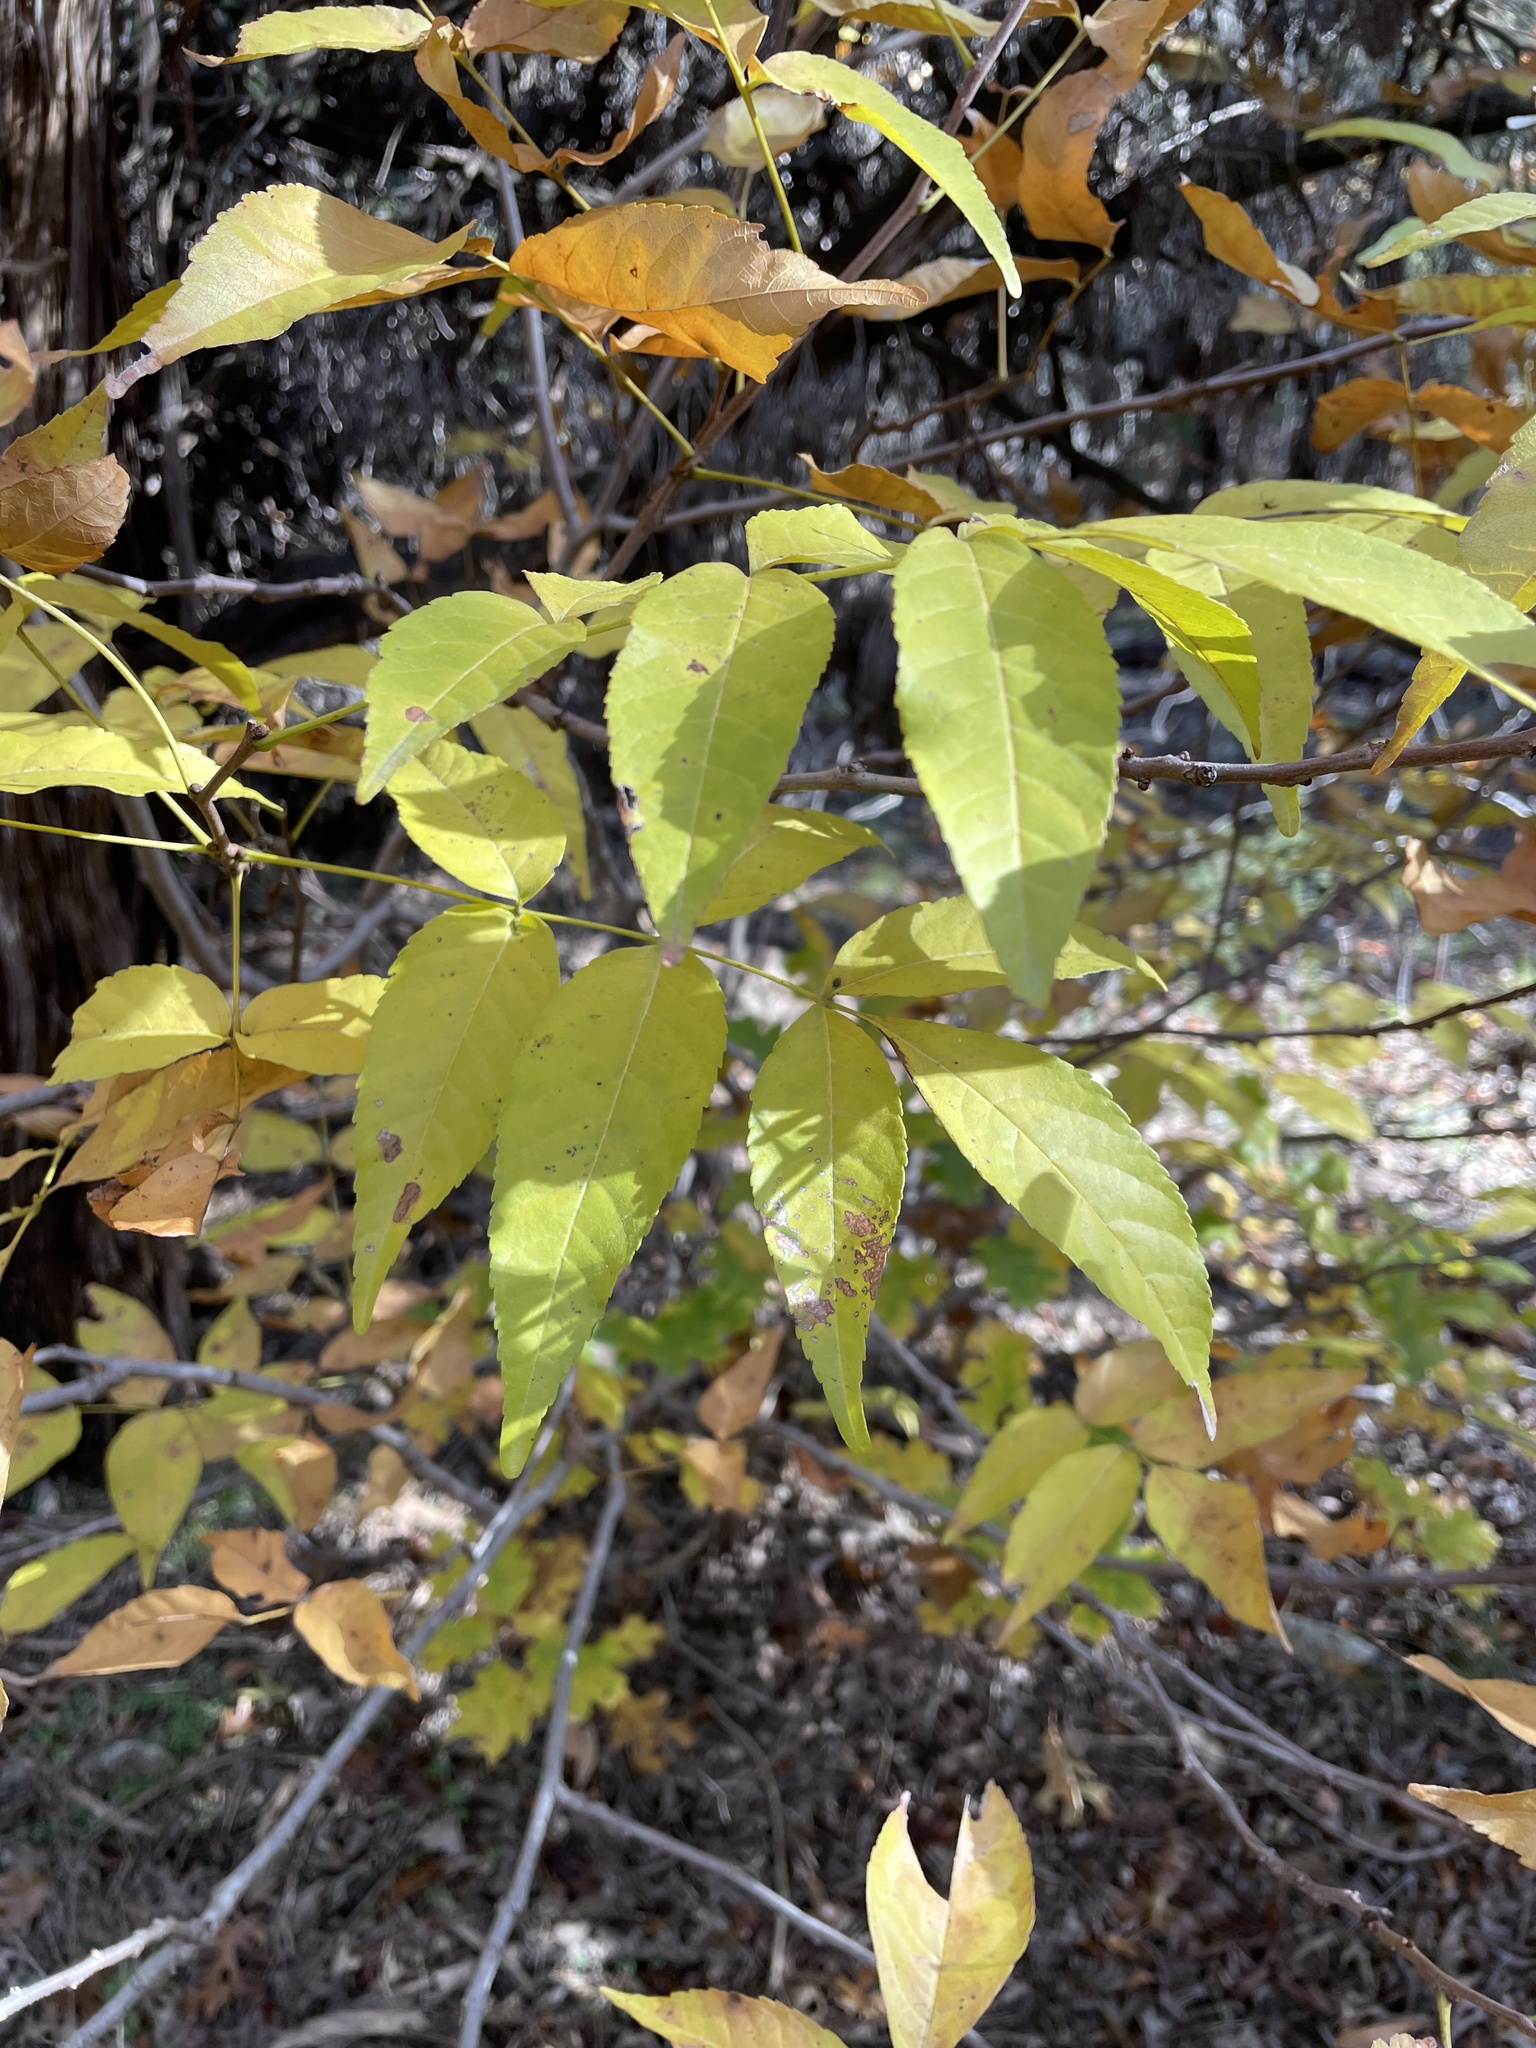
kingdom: Plantae
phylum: Tracheophyta
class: Magnoliopsida
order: Sapindales
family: Sapindaceae
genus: Ungnadia
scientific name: Ungnadia speciosa
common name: Texas-buckeye
